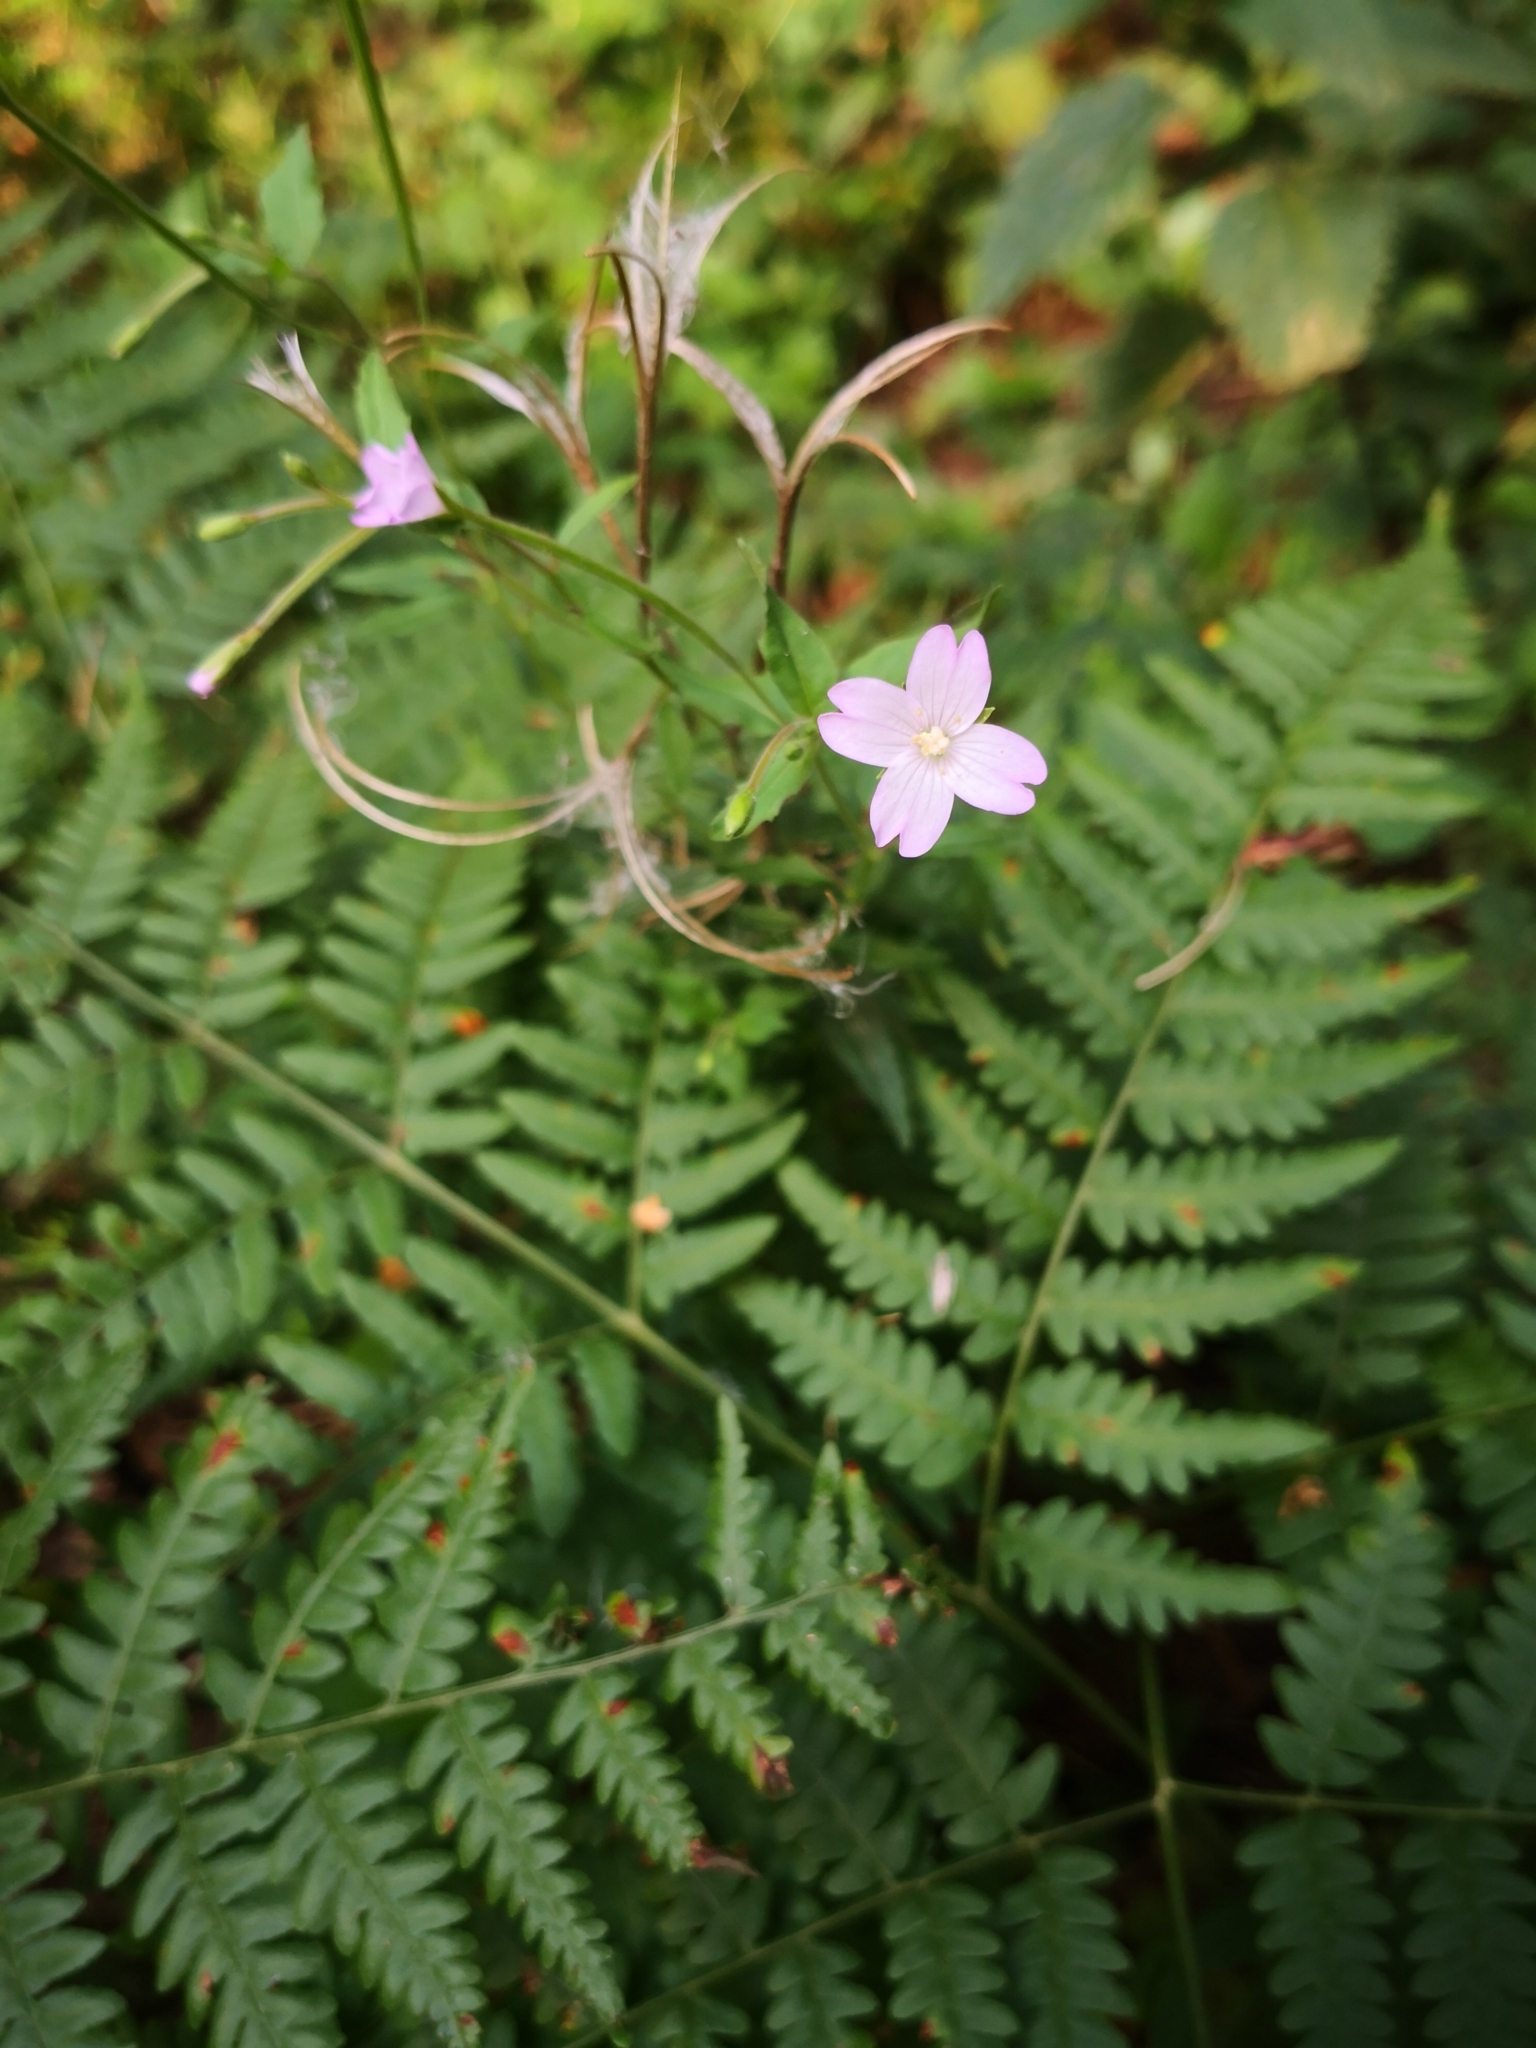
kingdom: Plantae
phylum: Tracheophyta
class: Magnoliopsida
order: Myrtales
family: Onagraceae
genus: Epilobium
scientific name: Epilobium montanum
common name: Broad-leaved willowherb
